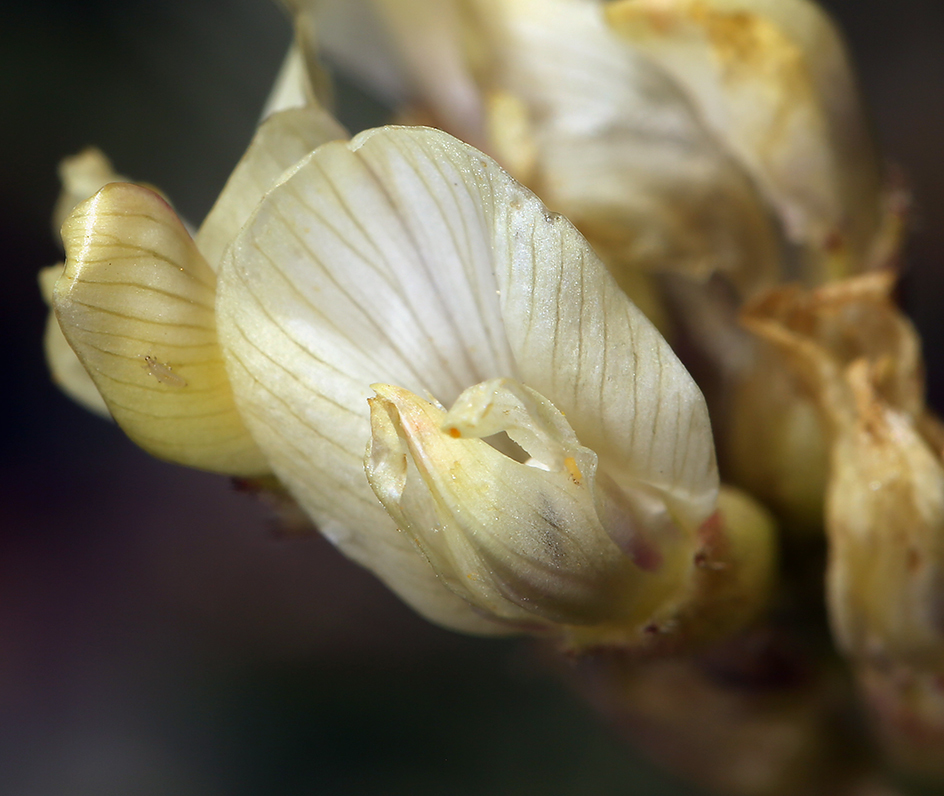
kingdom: Plantae
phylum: Tracheophyta
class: Magnoliopsida
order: Fabales
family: Fabaceae
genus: Astragalus
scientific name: Astragalus whitneyi
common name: Balloonpod milkvetch
